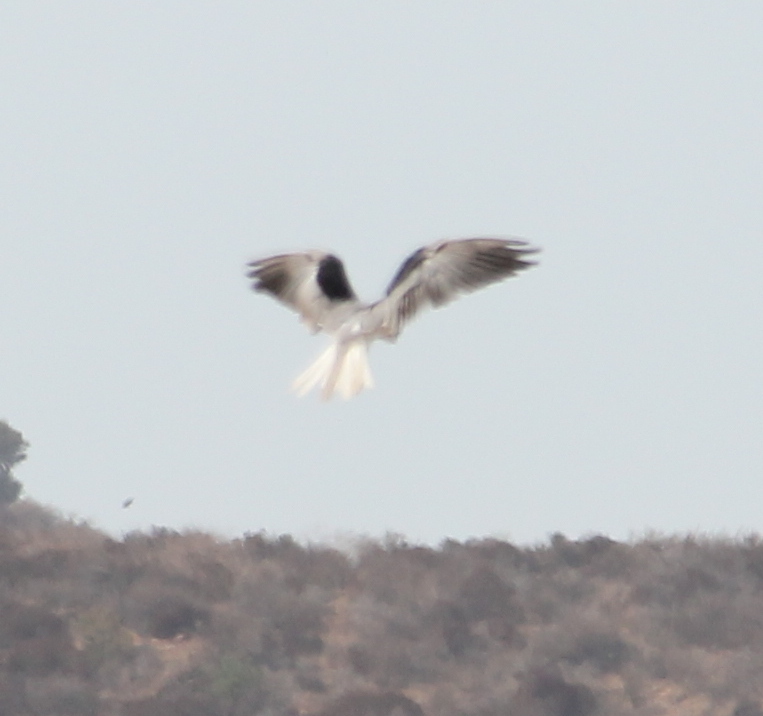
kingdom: Animalia
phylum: Chordata
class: Aves
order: Accipitriformes
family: Accipitridae
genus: Elanus
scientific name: Elanus leucurus
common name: White-tailed kite
